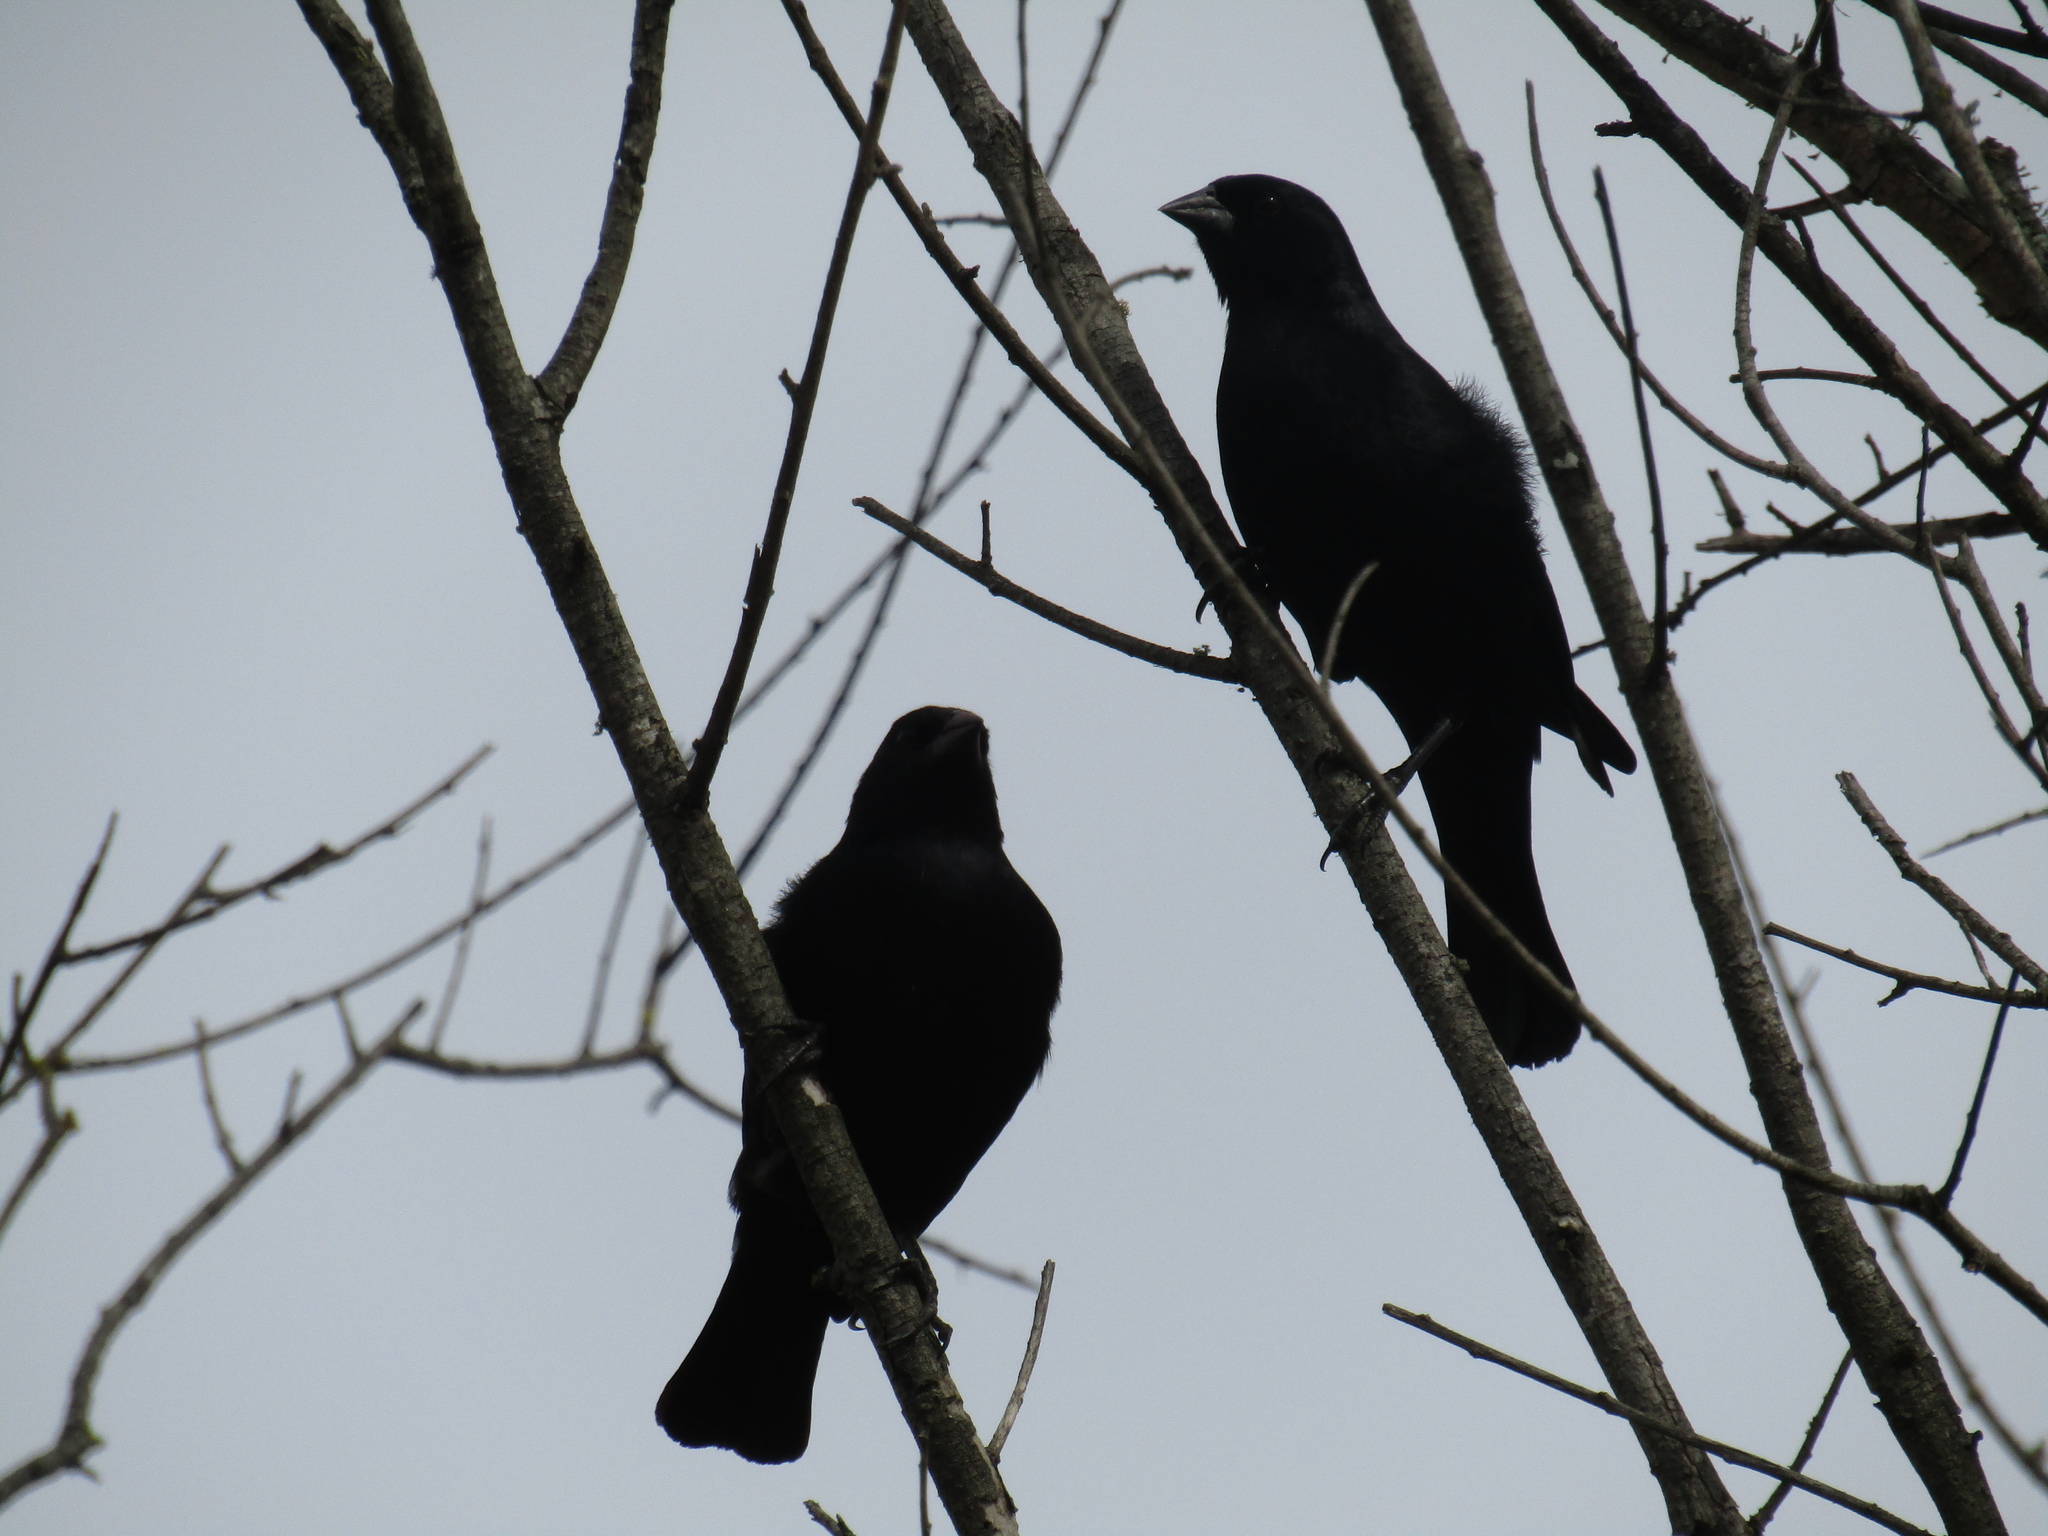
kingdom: Animalia
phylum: Chordata
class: Aves
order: Passeriformes
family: Icteridae
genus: Molothrus
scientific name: Molothrus bonariensis
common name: Shiny cowbird
